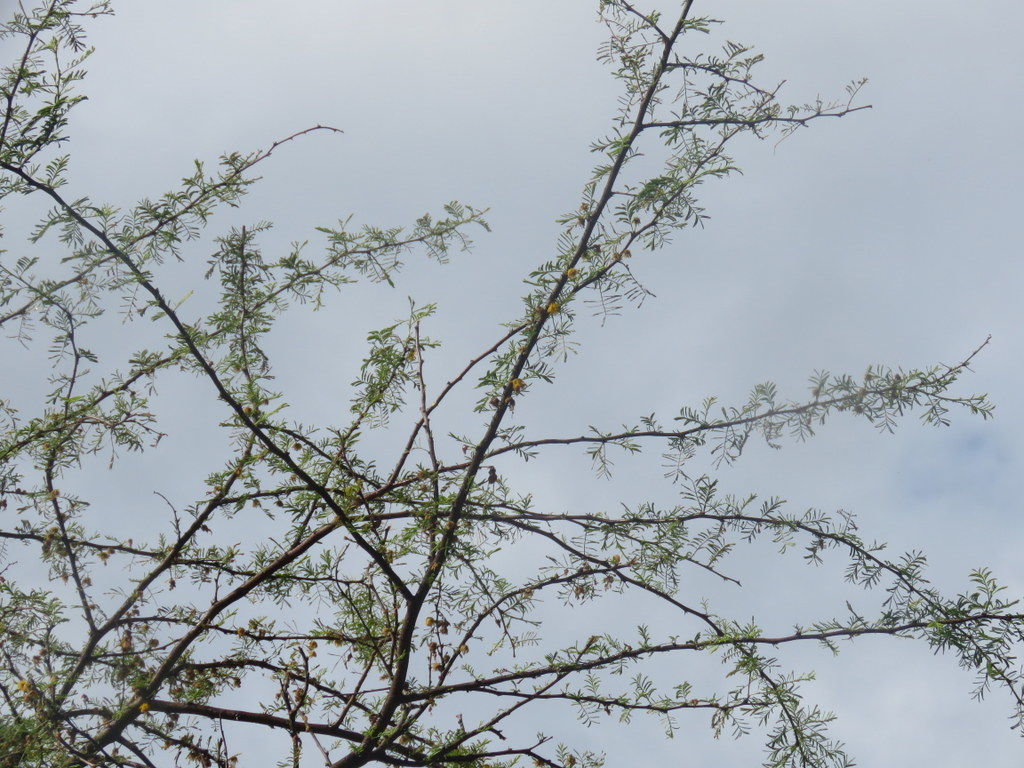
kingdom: Plantae
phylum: Tracheophyta
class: Magnoliopsida
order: Fabales
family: Fabaceae
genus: Vachellia
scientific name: Vachellia caven
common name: Roman cassie
